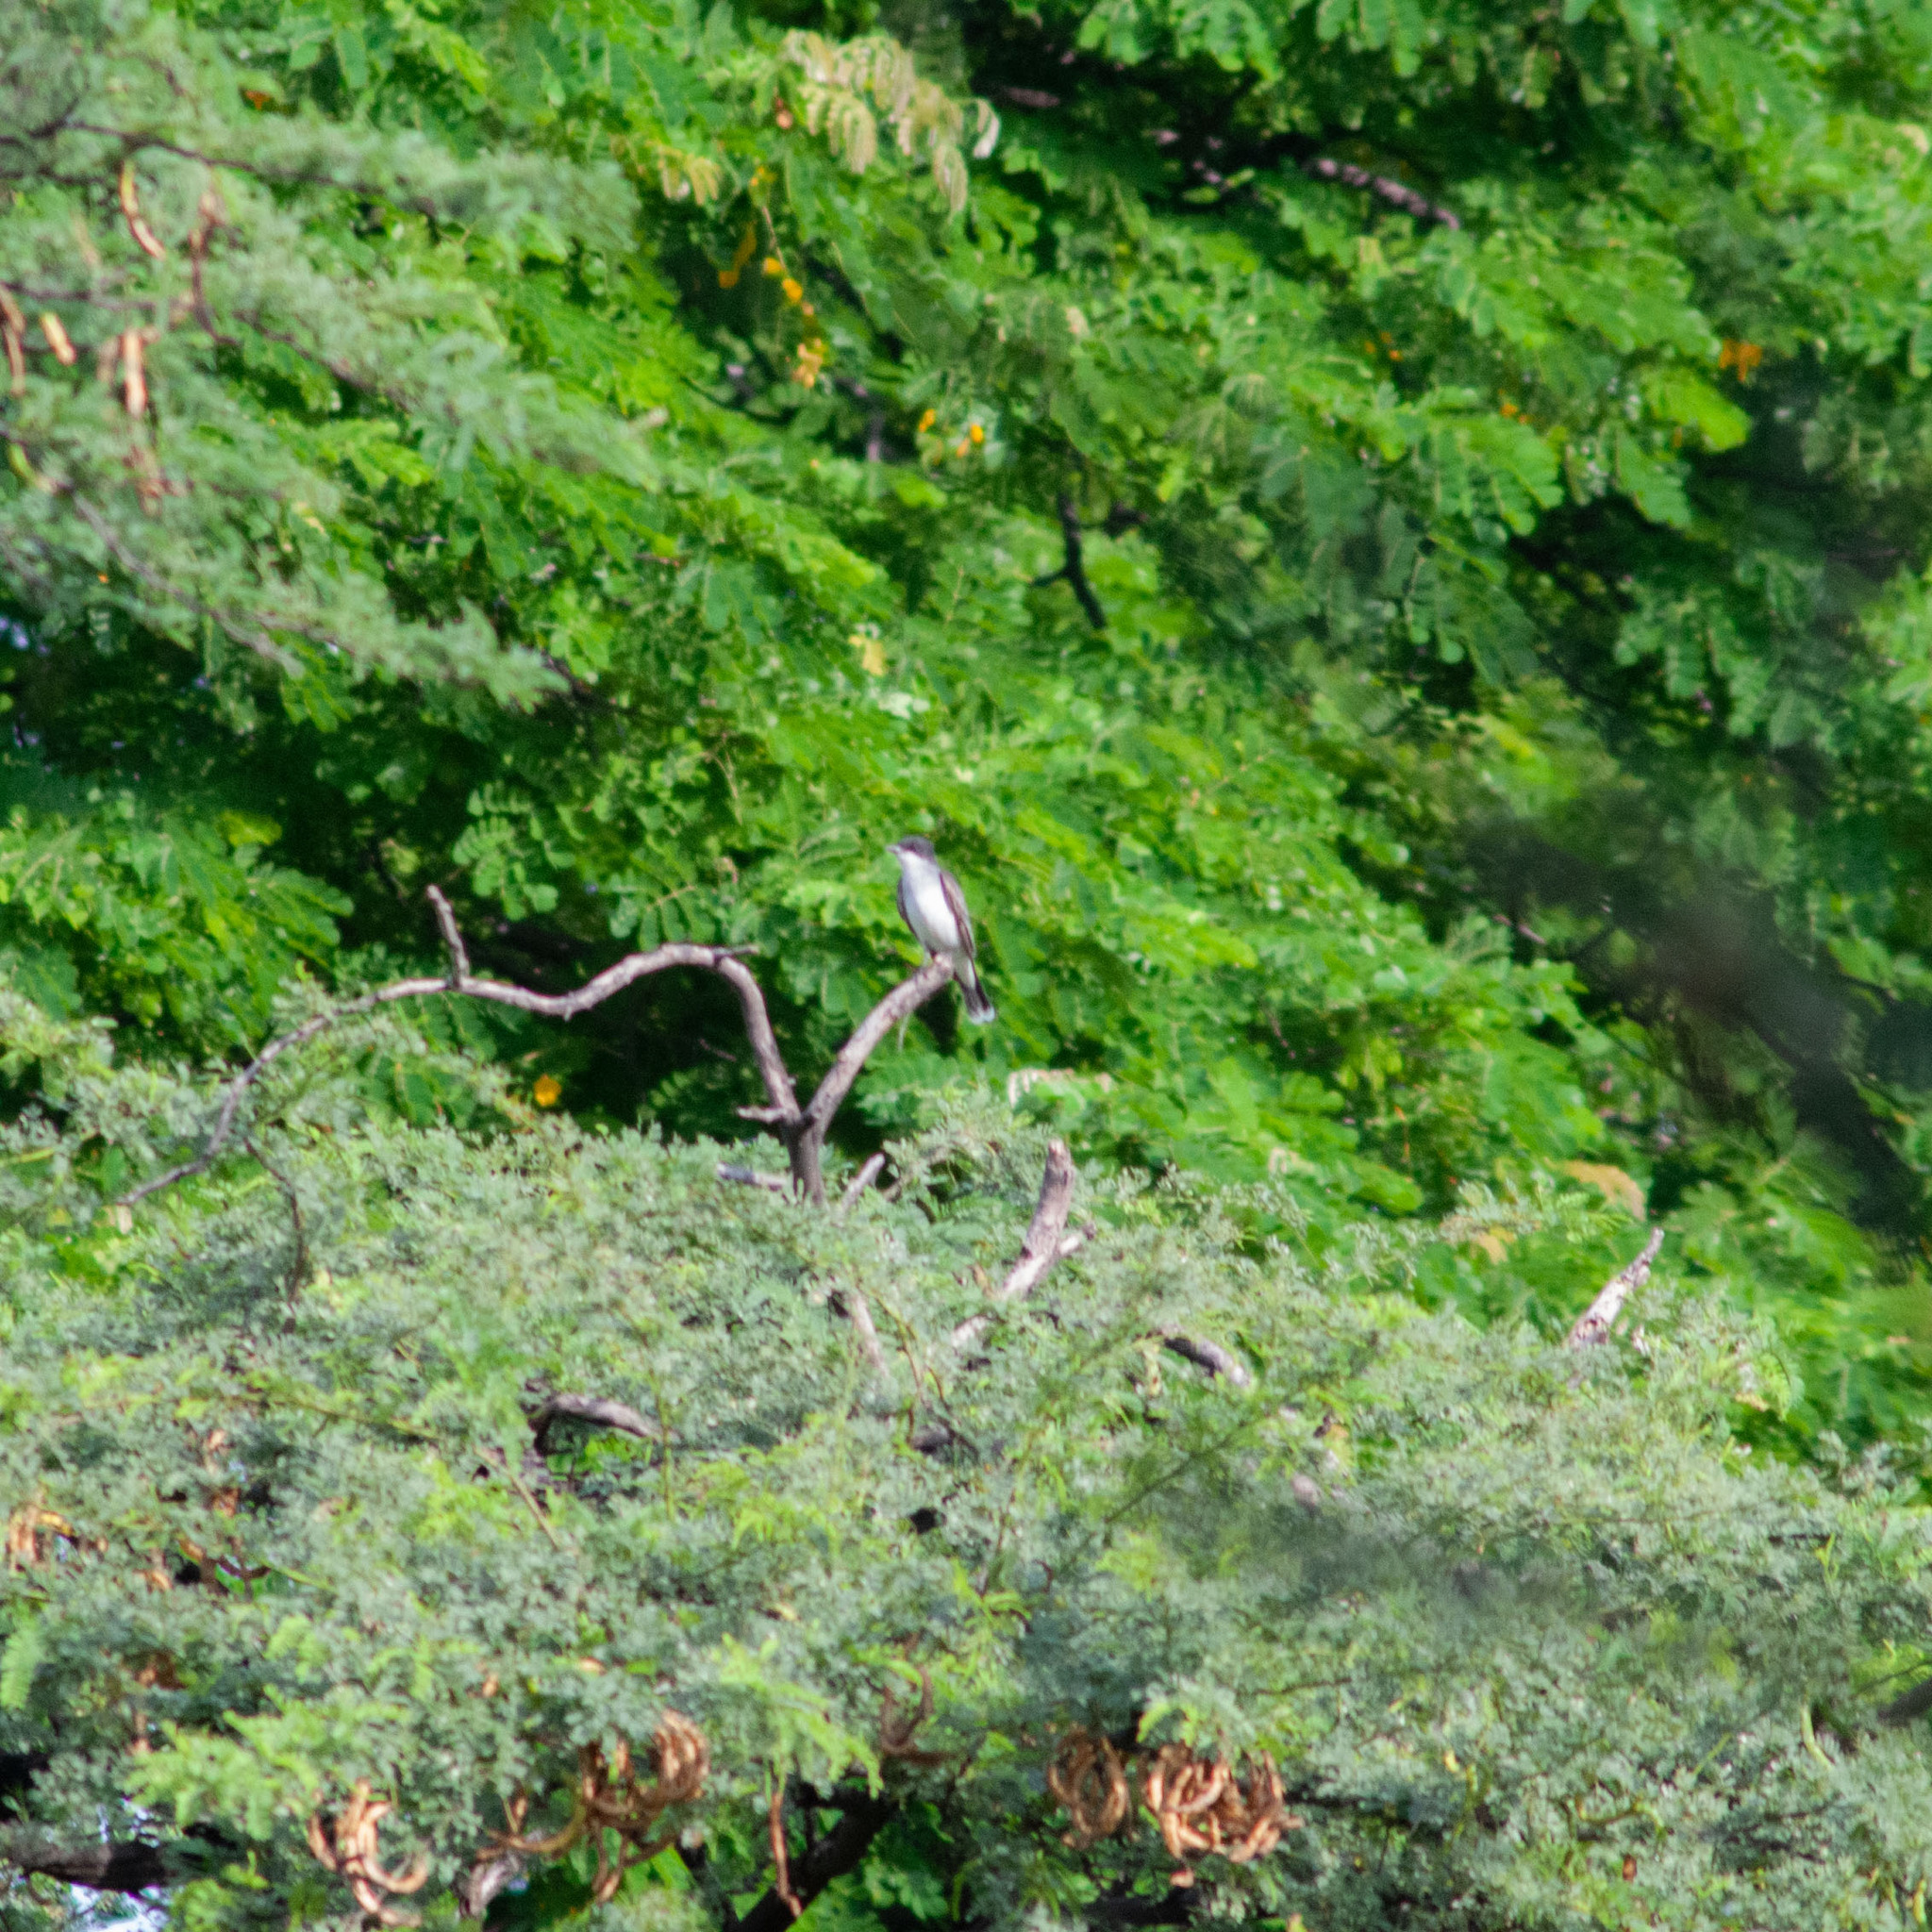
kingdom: Animalia
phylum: Chordata
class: Aves
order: Passeriformes
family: Tyrannidae
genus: Tyrannus
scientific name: Tyrannus tyrannus
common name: Eastern kingbird
